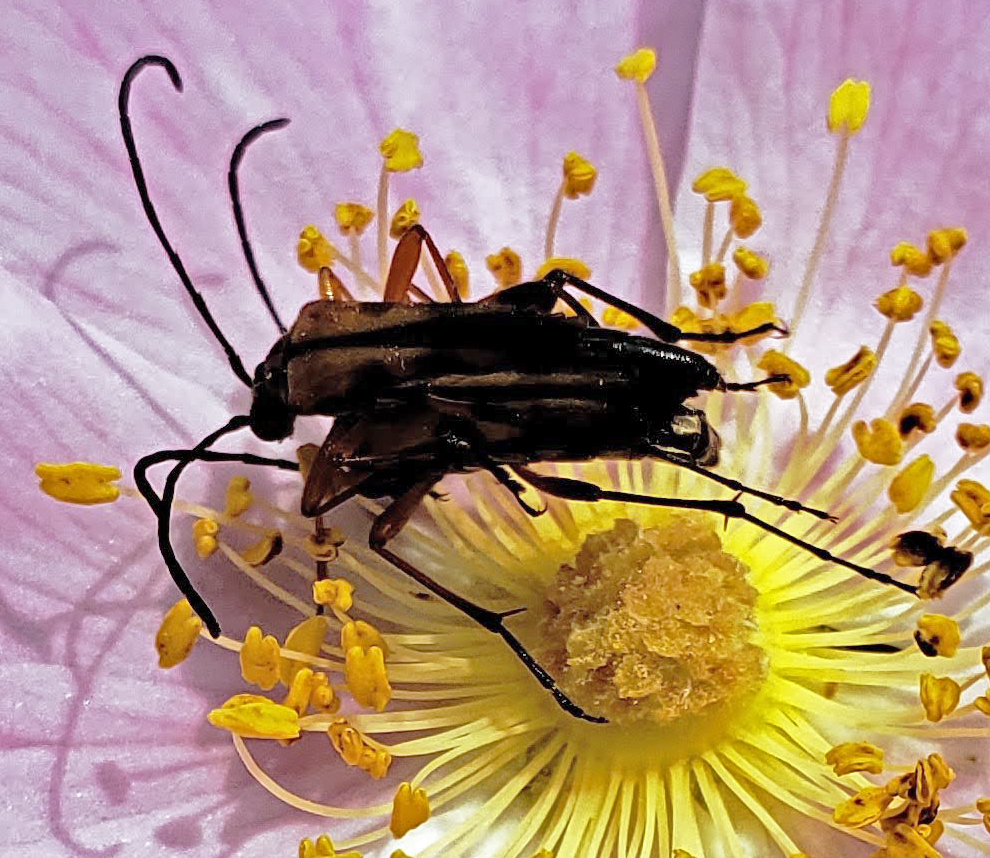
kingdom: Animalia
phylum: Arthropoda
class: Insecta
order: Coleoptera
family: Cerambycidae
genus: Strangalia
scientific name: Strangalia famelica
